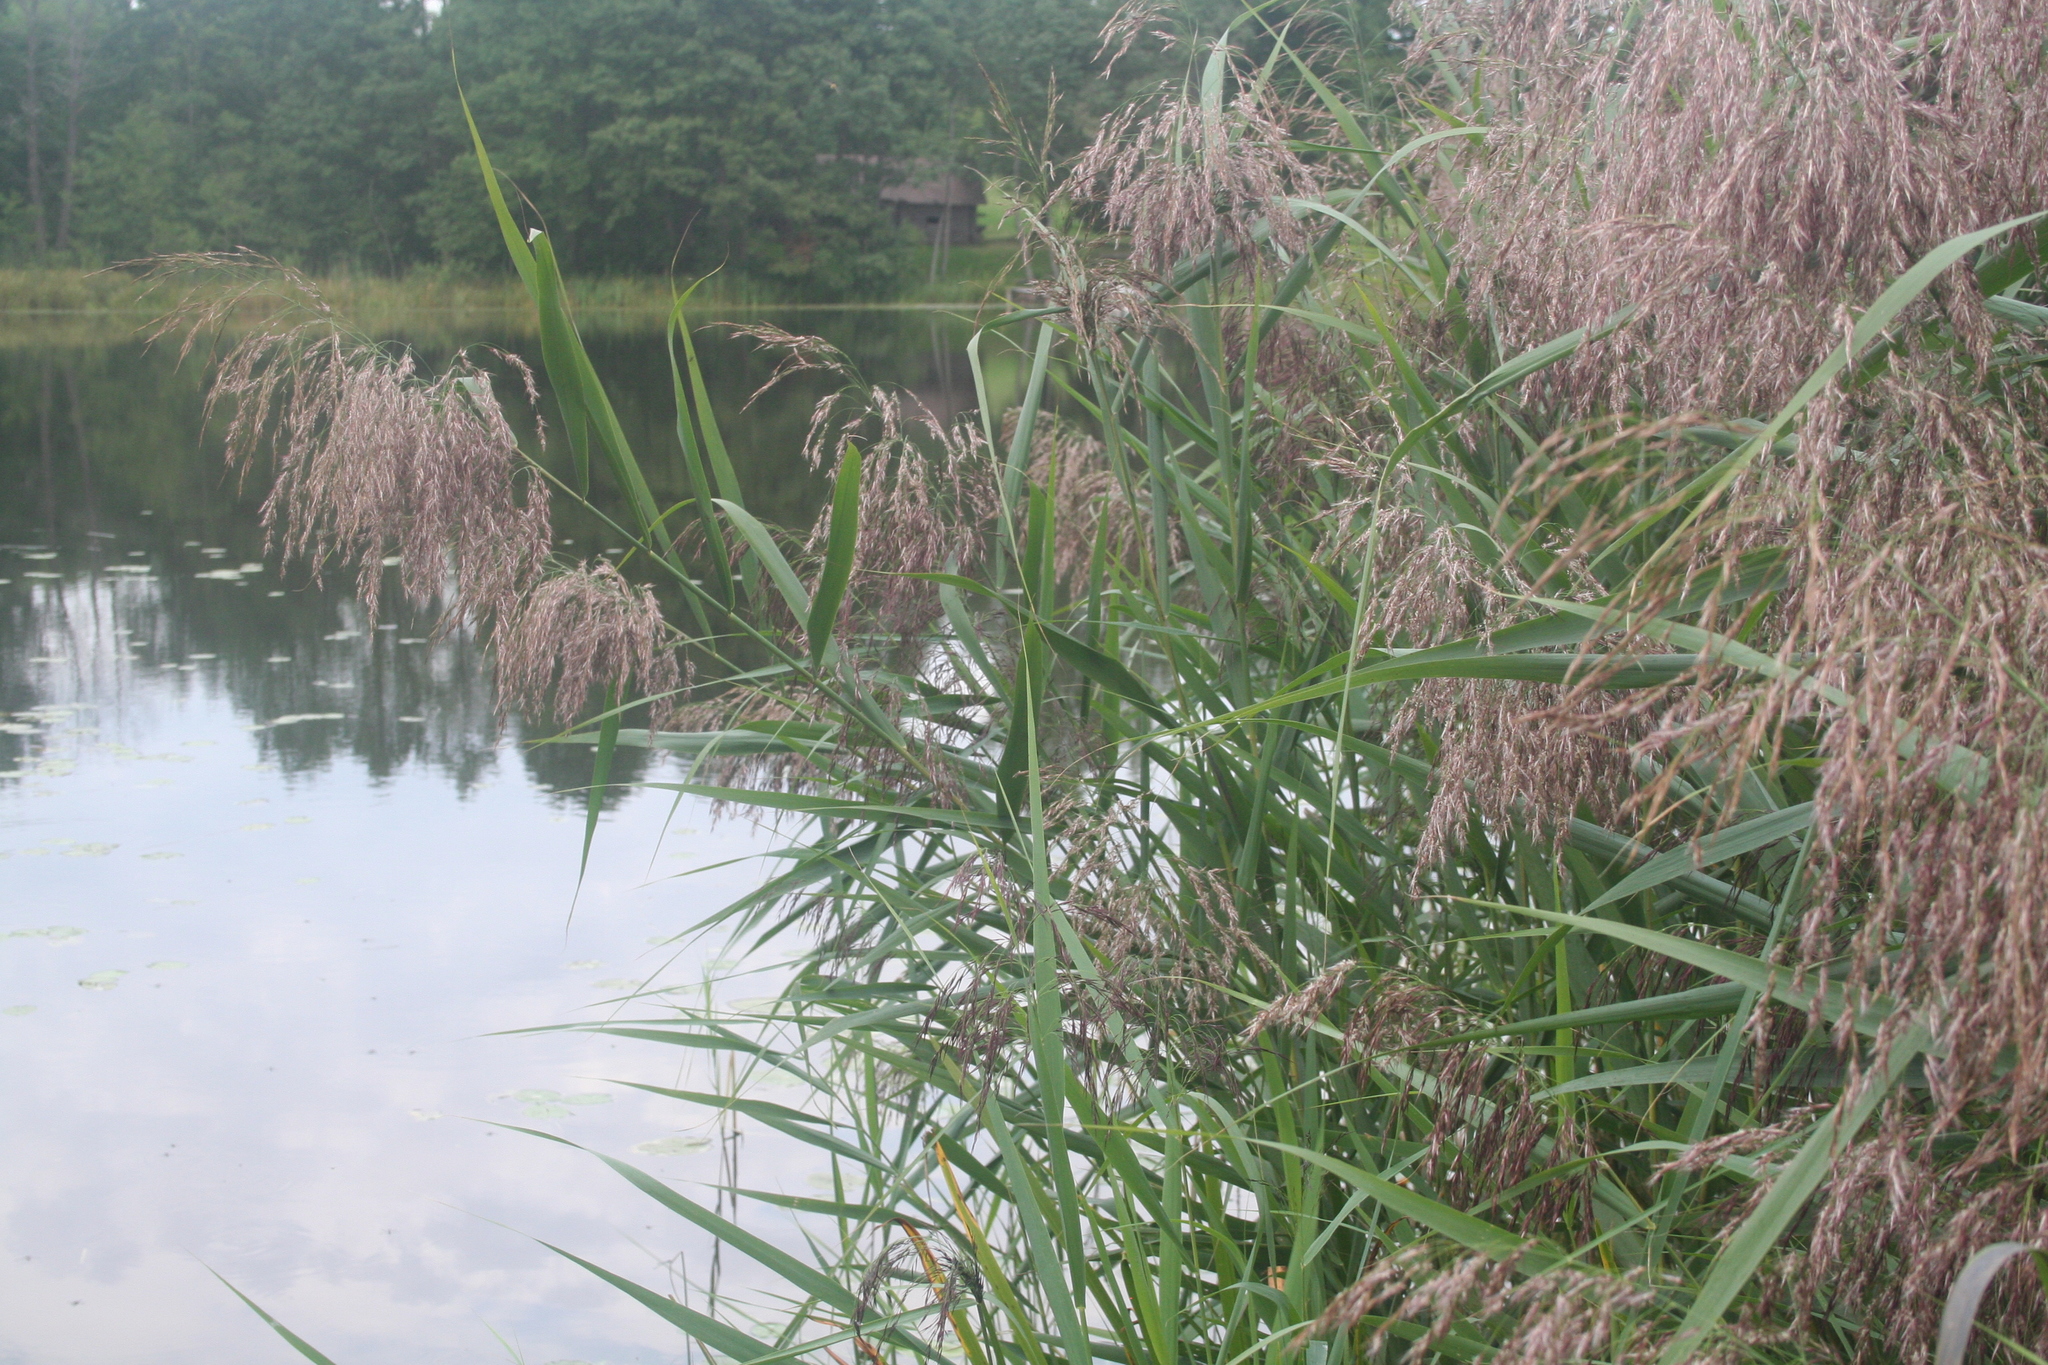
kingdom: Plantae
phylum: Tracheophyta
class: Liliopsida
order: Poales
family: Poaceae
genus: Phragmites
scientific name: Phragmites australis
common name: Common reed
